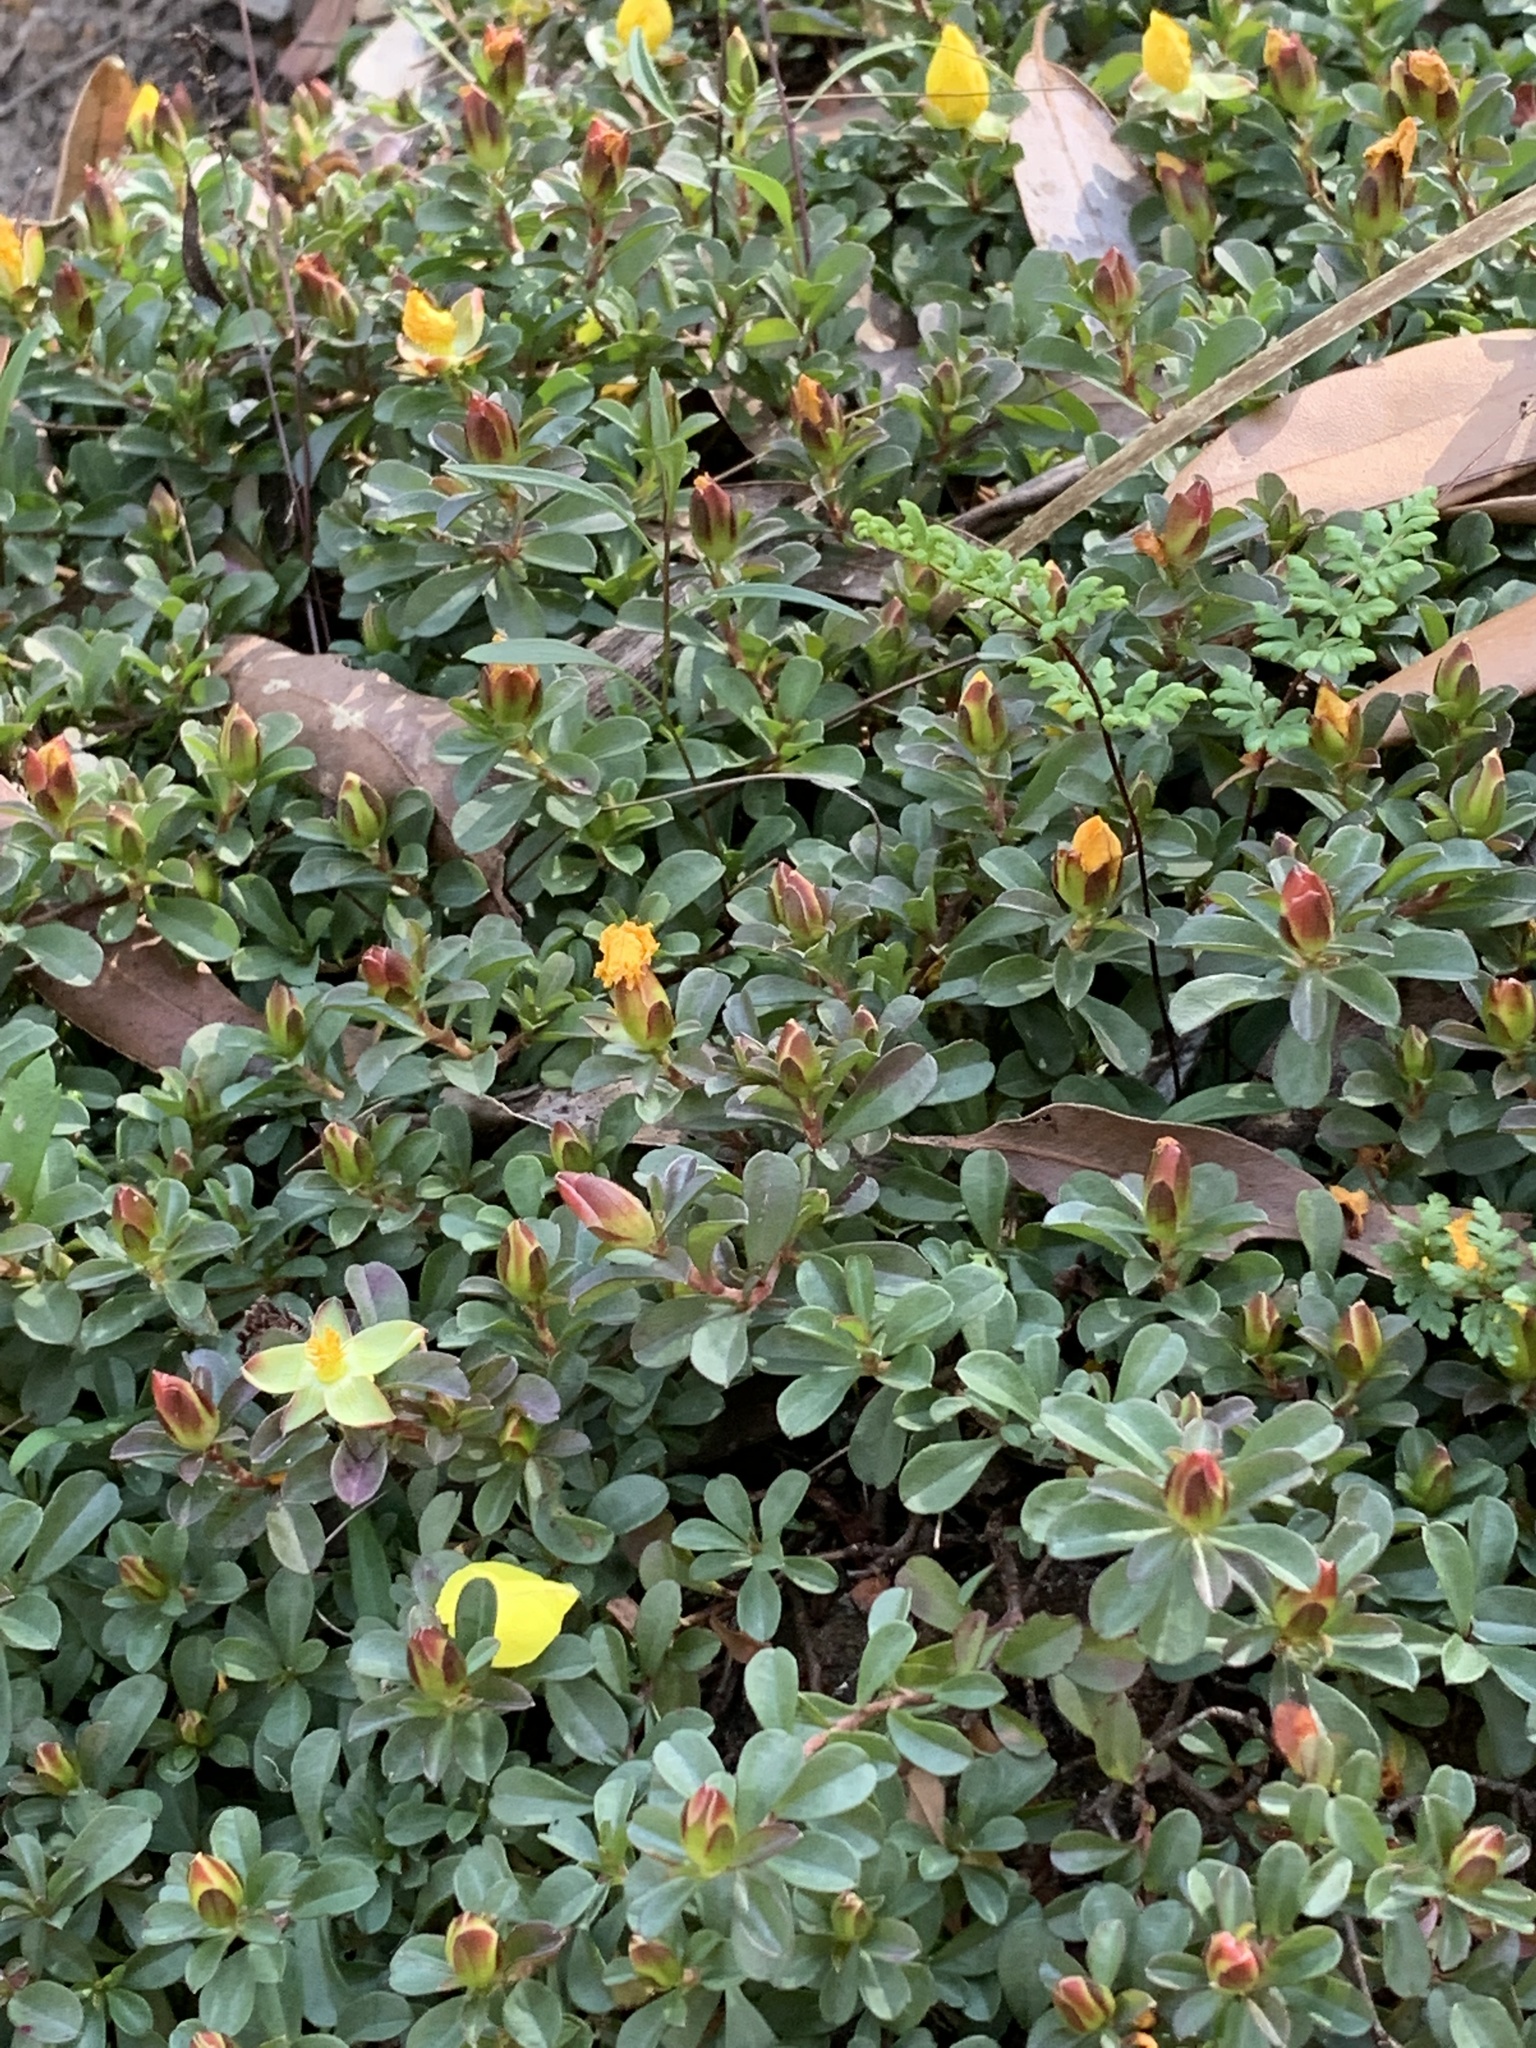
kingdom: Plantae
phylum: Tracheophyta
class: Magnoliopsida
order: Dilleniales
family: Dilleniaceae
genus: Hibbertia
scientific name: Hibbertia diffusa
